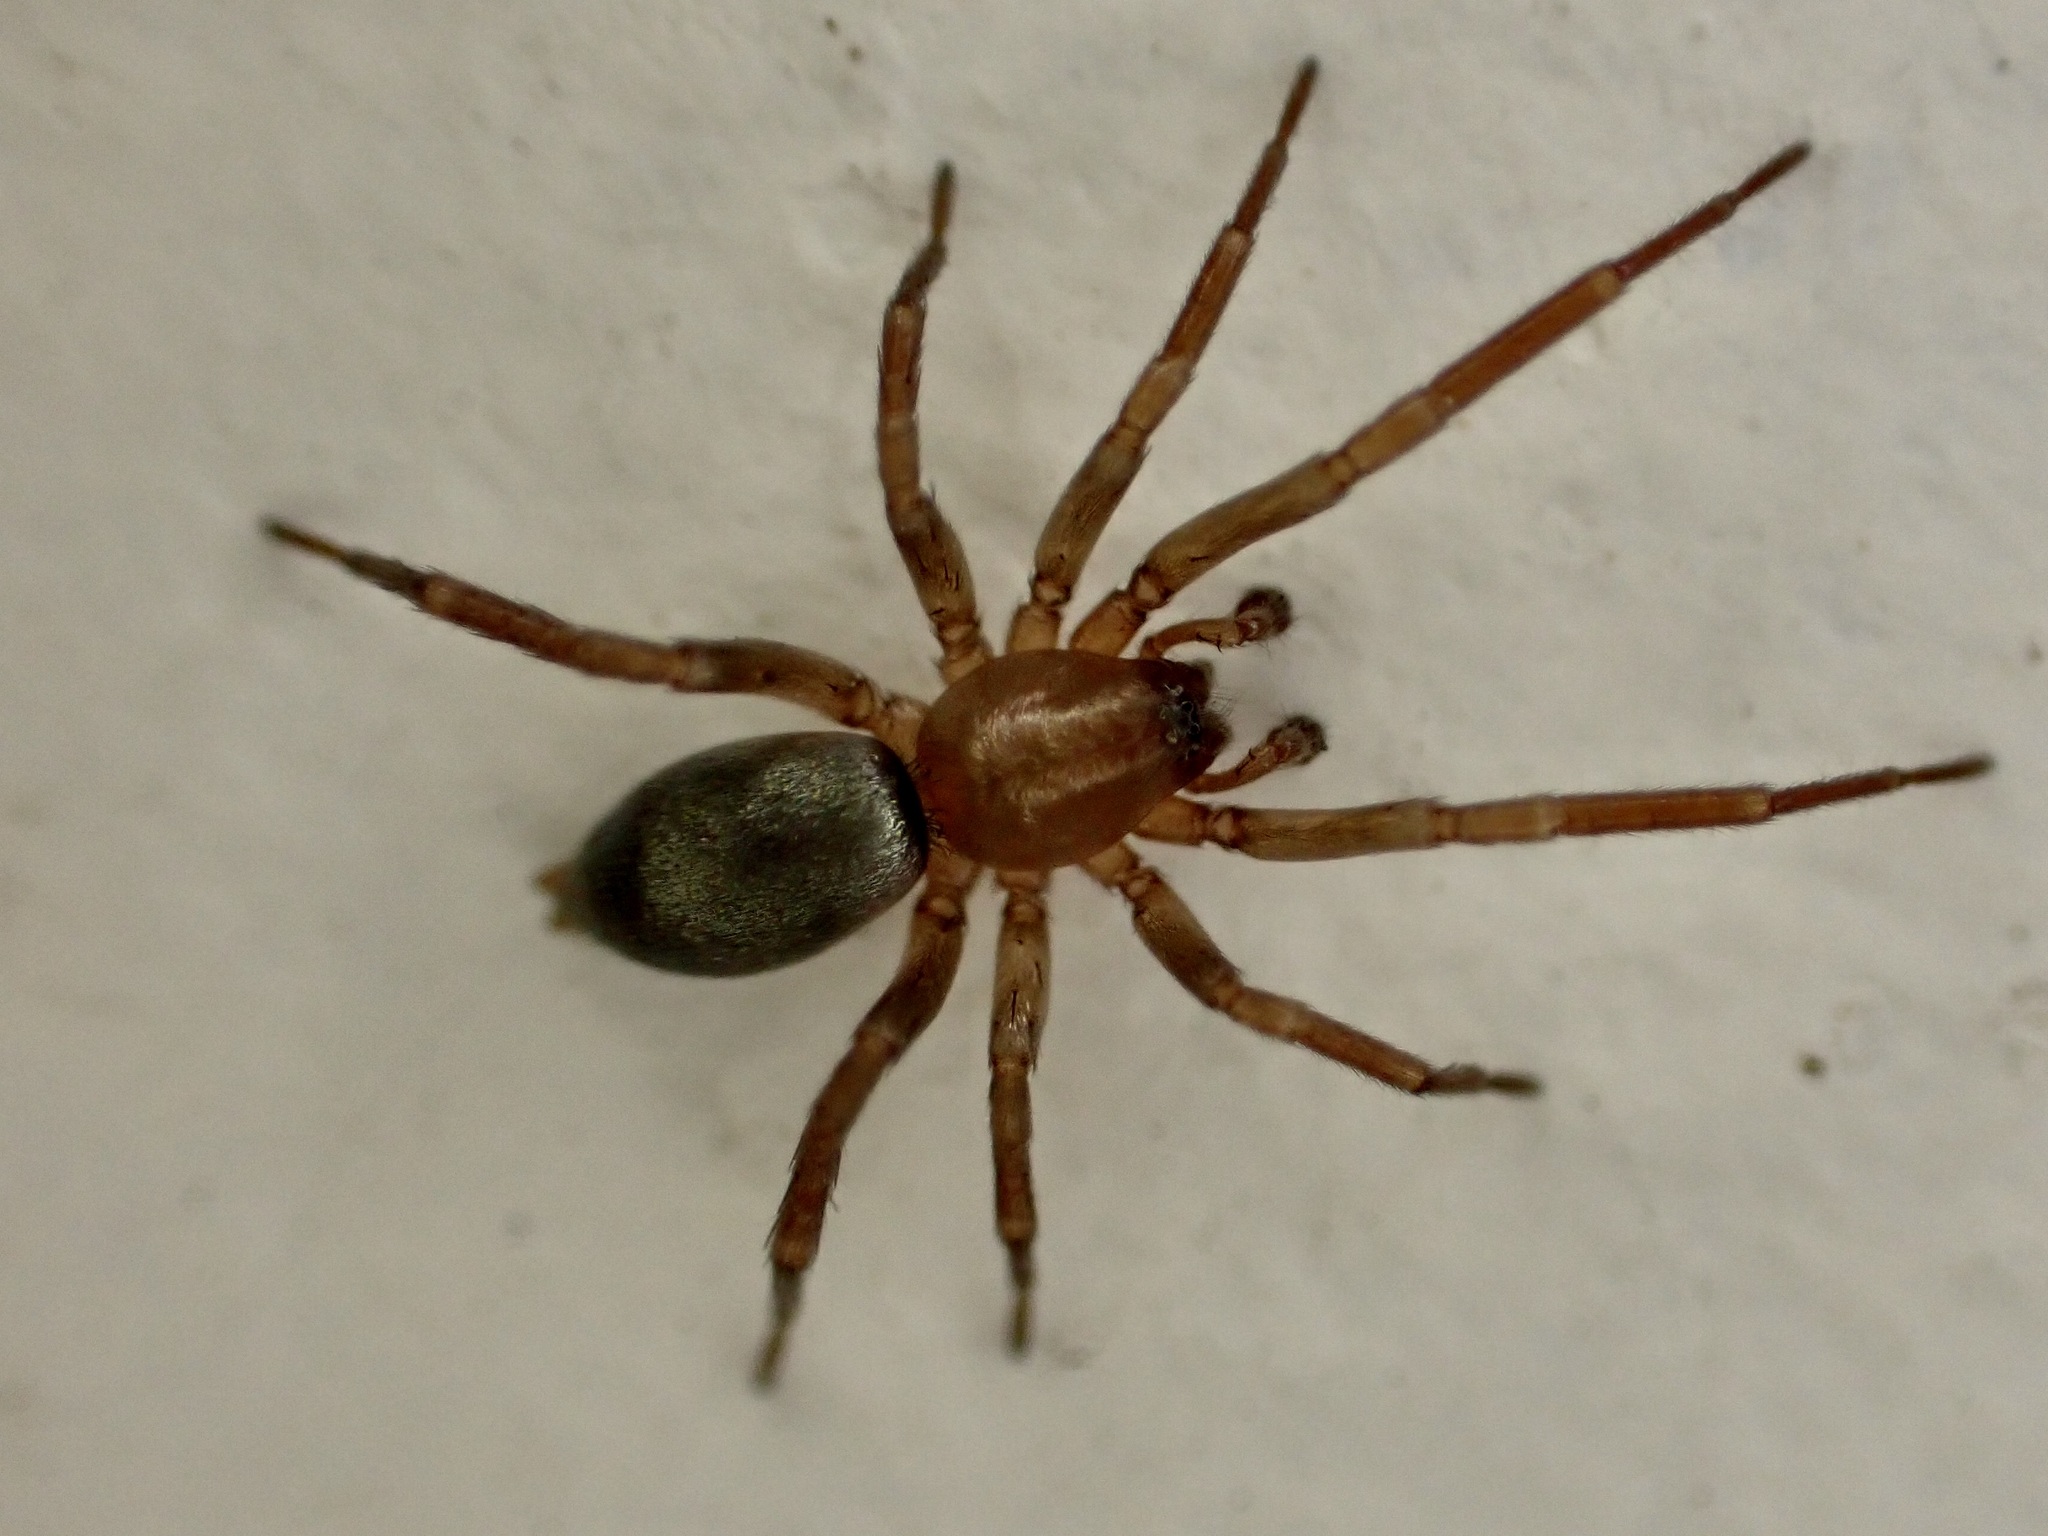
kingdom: Animalia
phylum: Arthropoda
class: Arachnida
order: Araneae
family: Gnaphosidae
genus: Hypodrassodes
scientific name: Hypodrassodes maoricus
